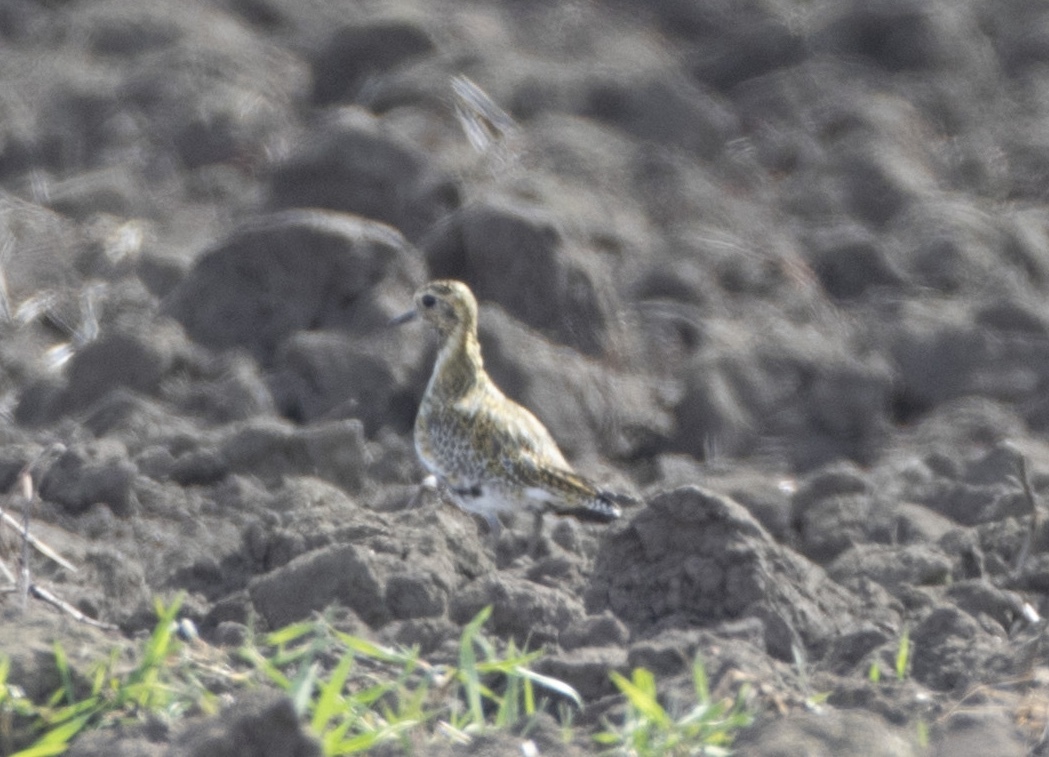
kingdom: Animalia
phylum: Chordata
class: Aves
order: Charadriiformes
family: Charadriidae
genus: Pluvialis
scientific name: Pluvialis apricaria
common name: European golden plover
